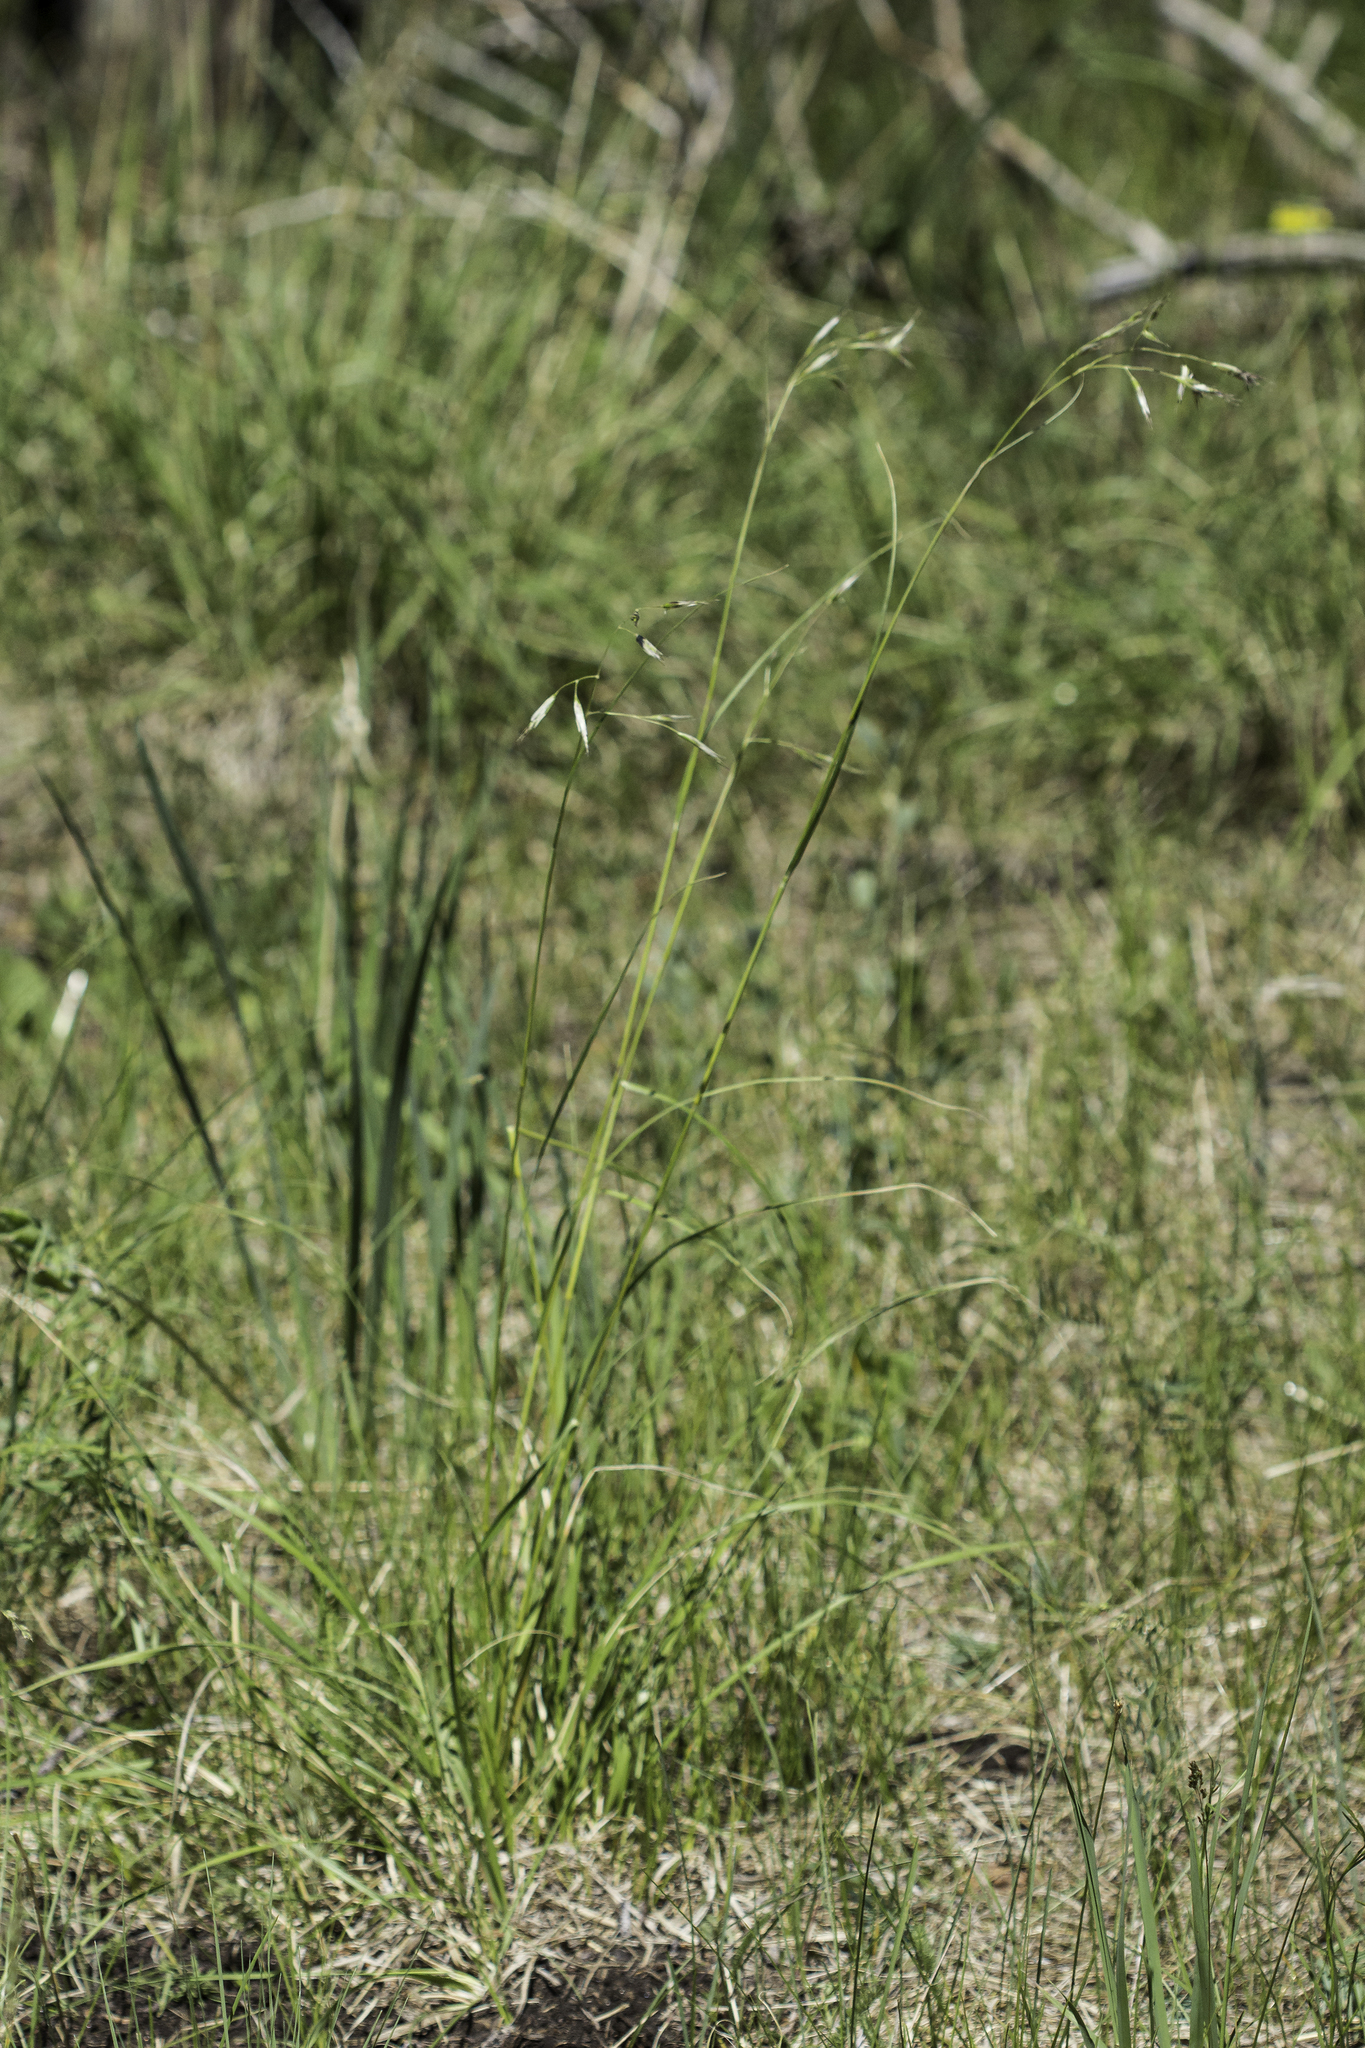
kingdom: Plantae
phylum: Tracheophyta
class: Liliopsida
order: Poales
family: Poaceae
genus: Danthonia
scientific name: Danthonia parryi
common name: Parry's oat grass
